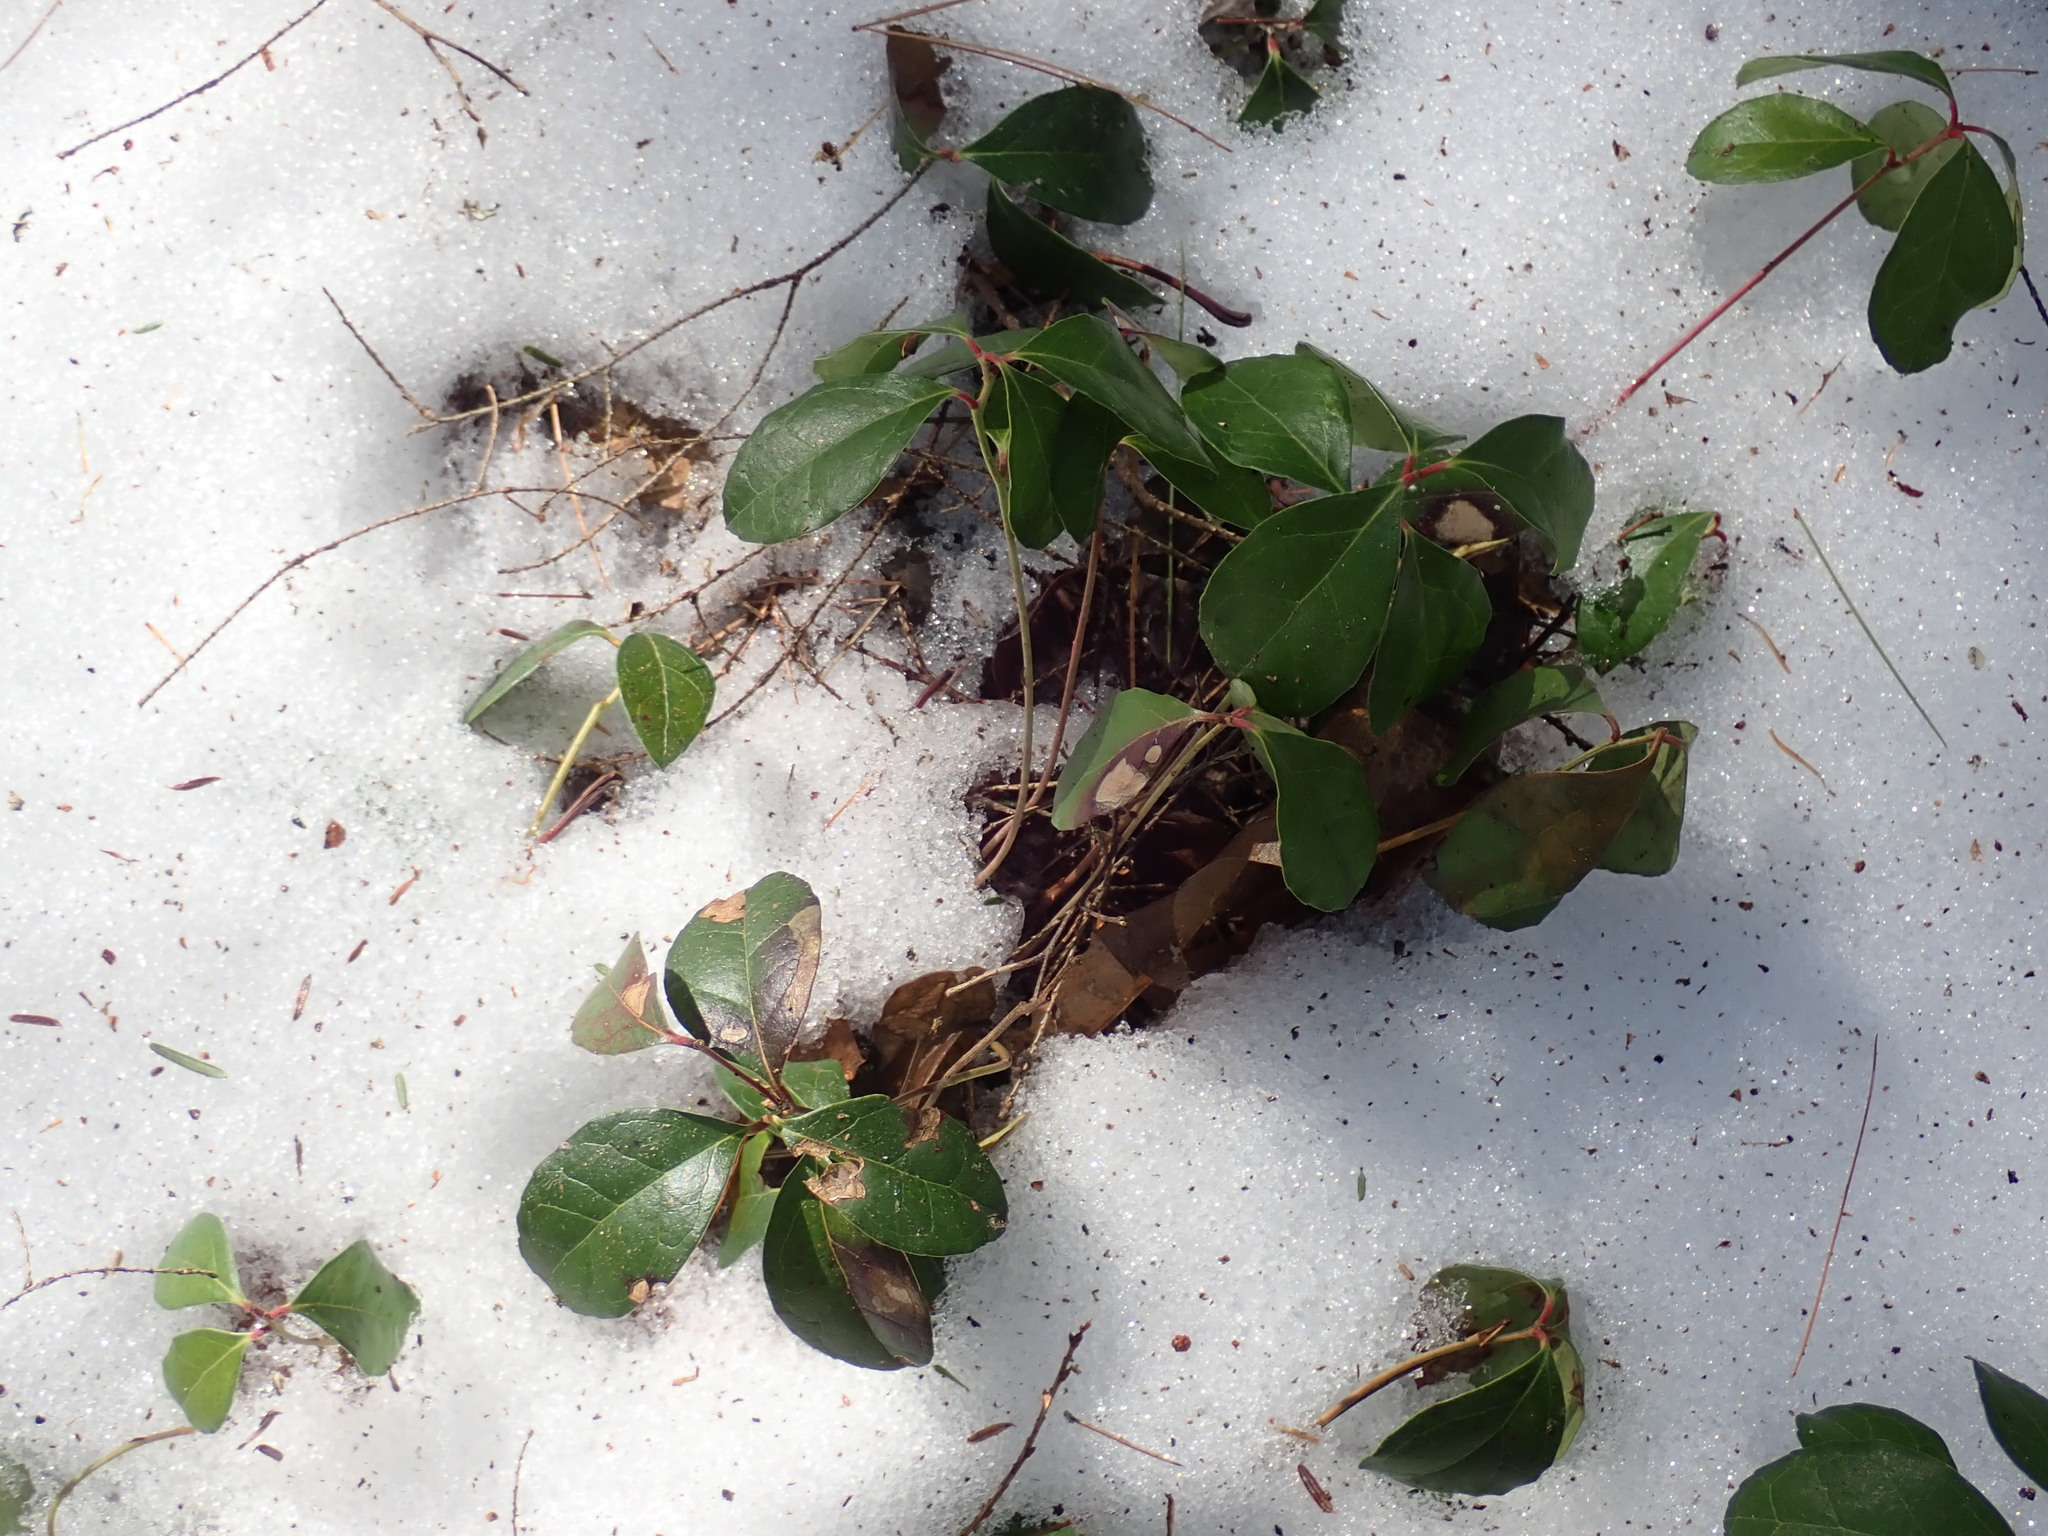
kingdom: Plantae
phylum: Tracheophyta
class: Magnoliopsida
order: Ericales
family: Ericaceae
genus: Gaultheria
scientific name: Gaultheria procumbens
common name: Checkerberry
